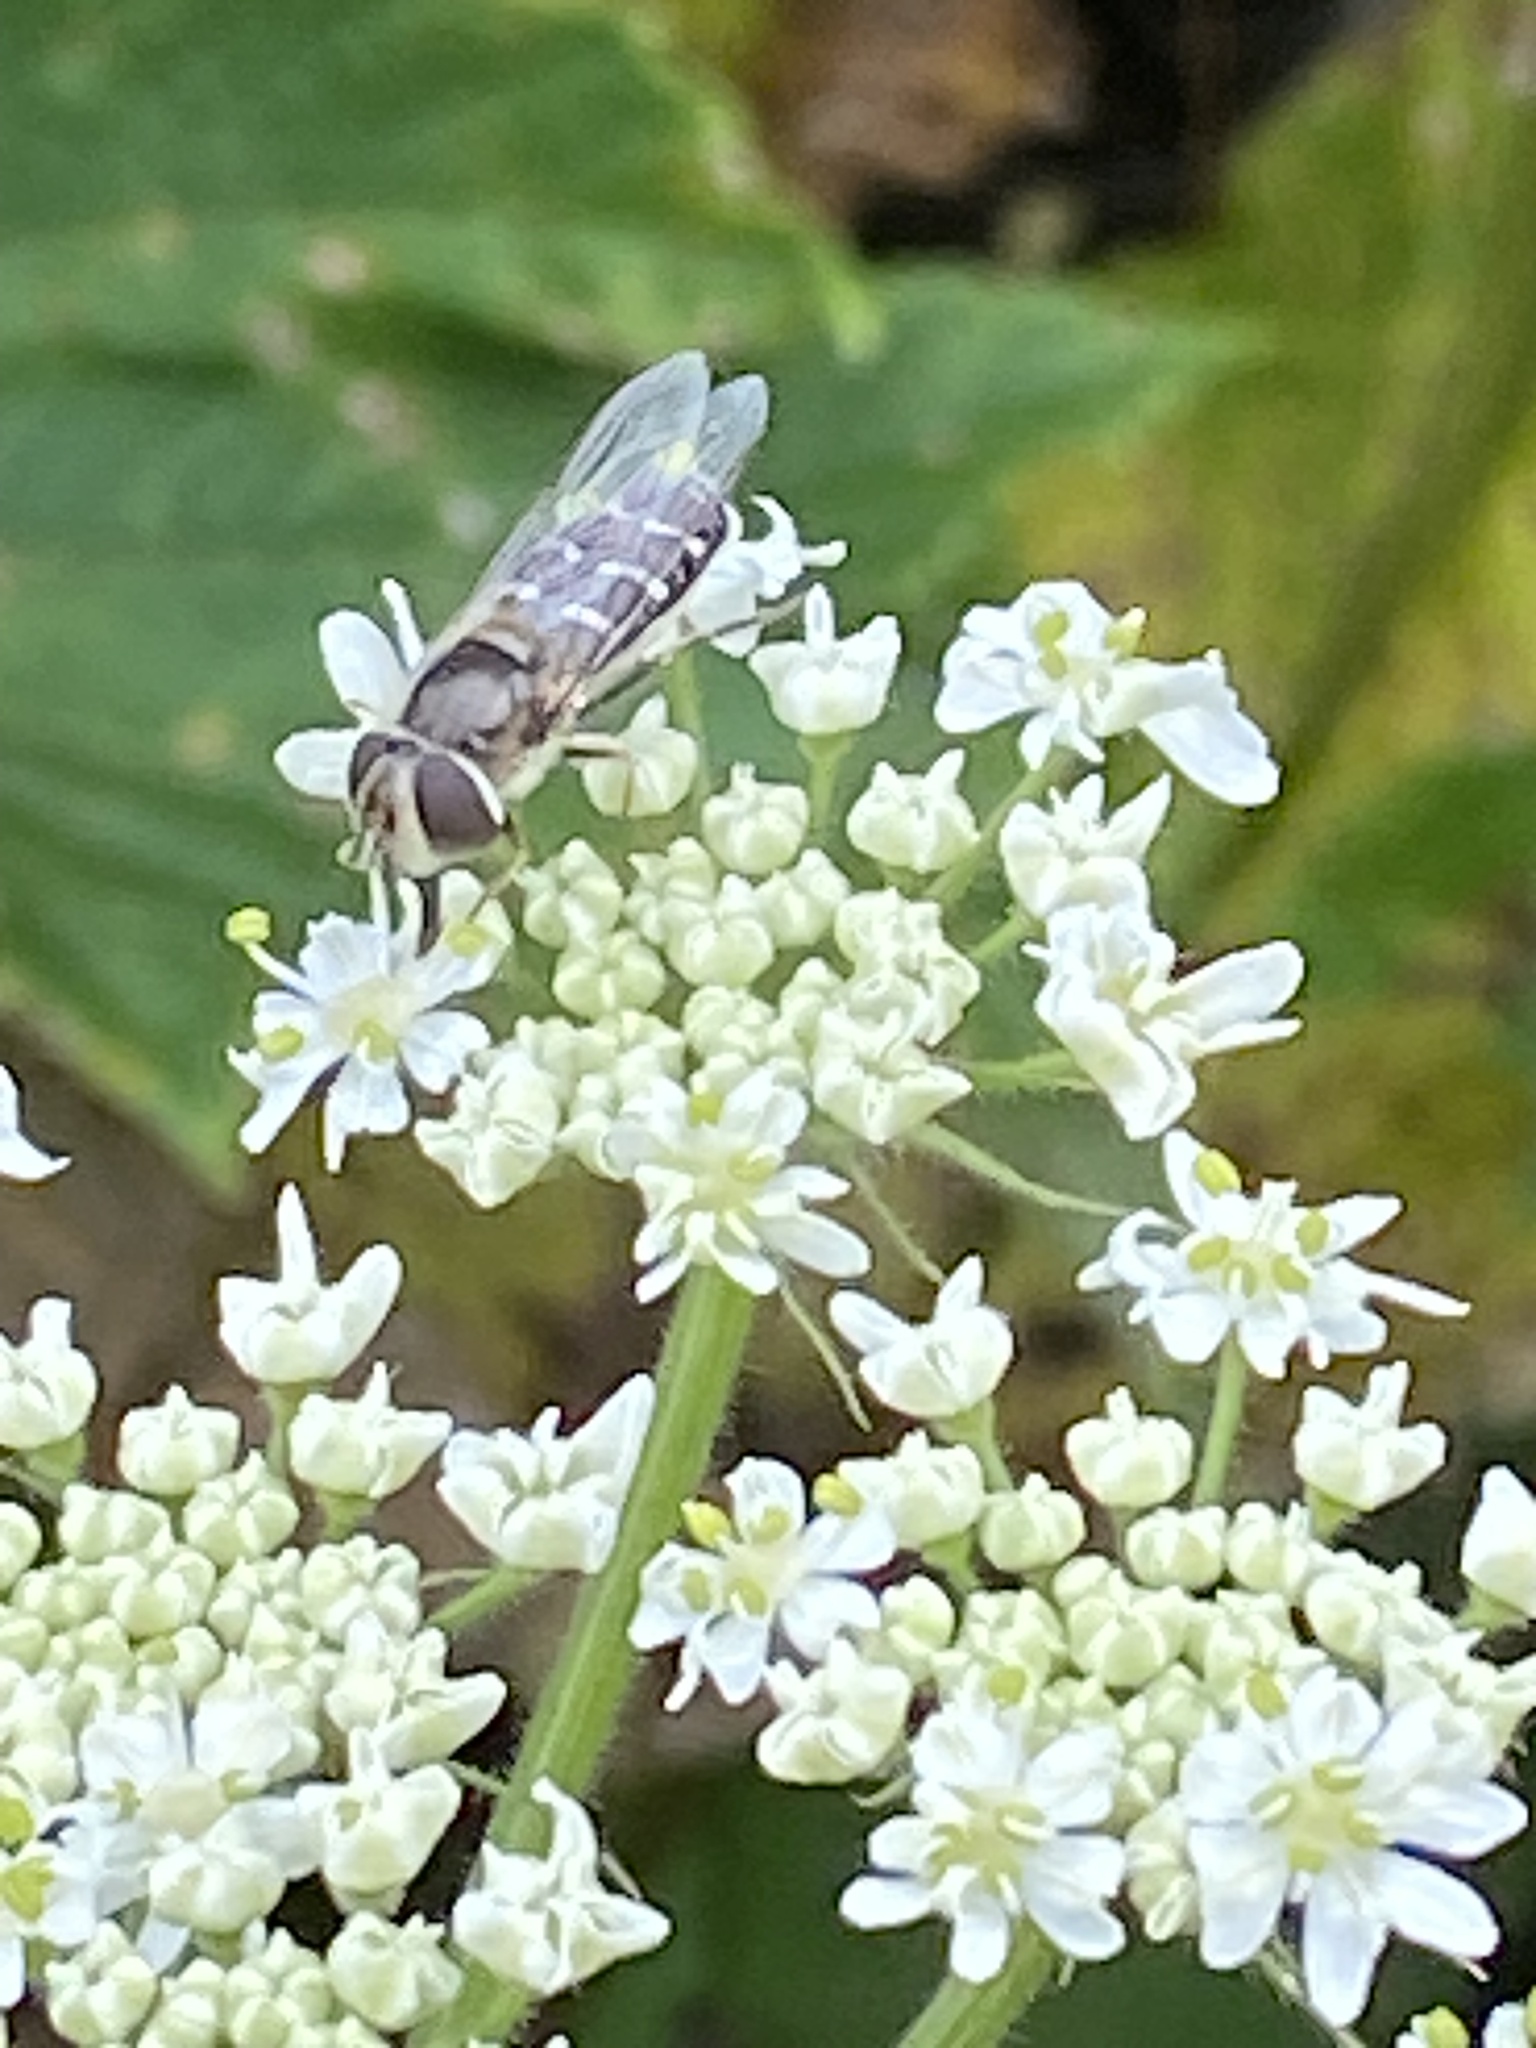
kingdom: Animalia
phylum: Arthropoda
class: Insecta
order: Diptera
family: Syrphidae
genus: Scaeva
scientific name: Scaeva affinis
